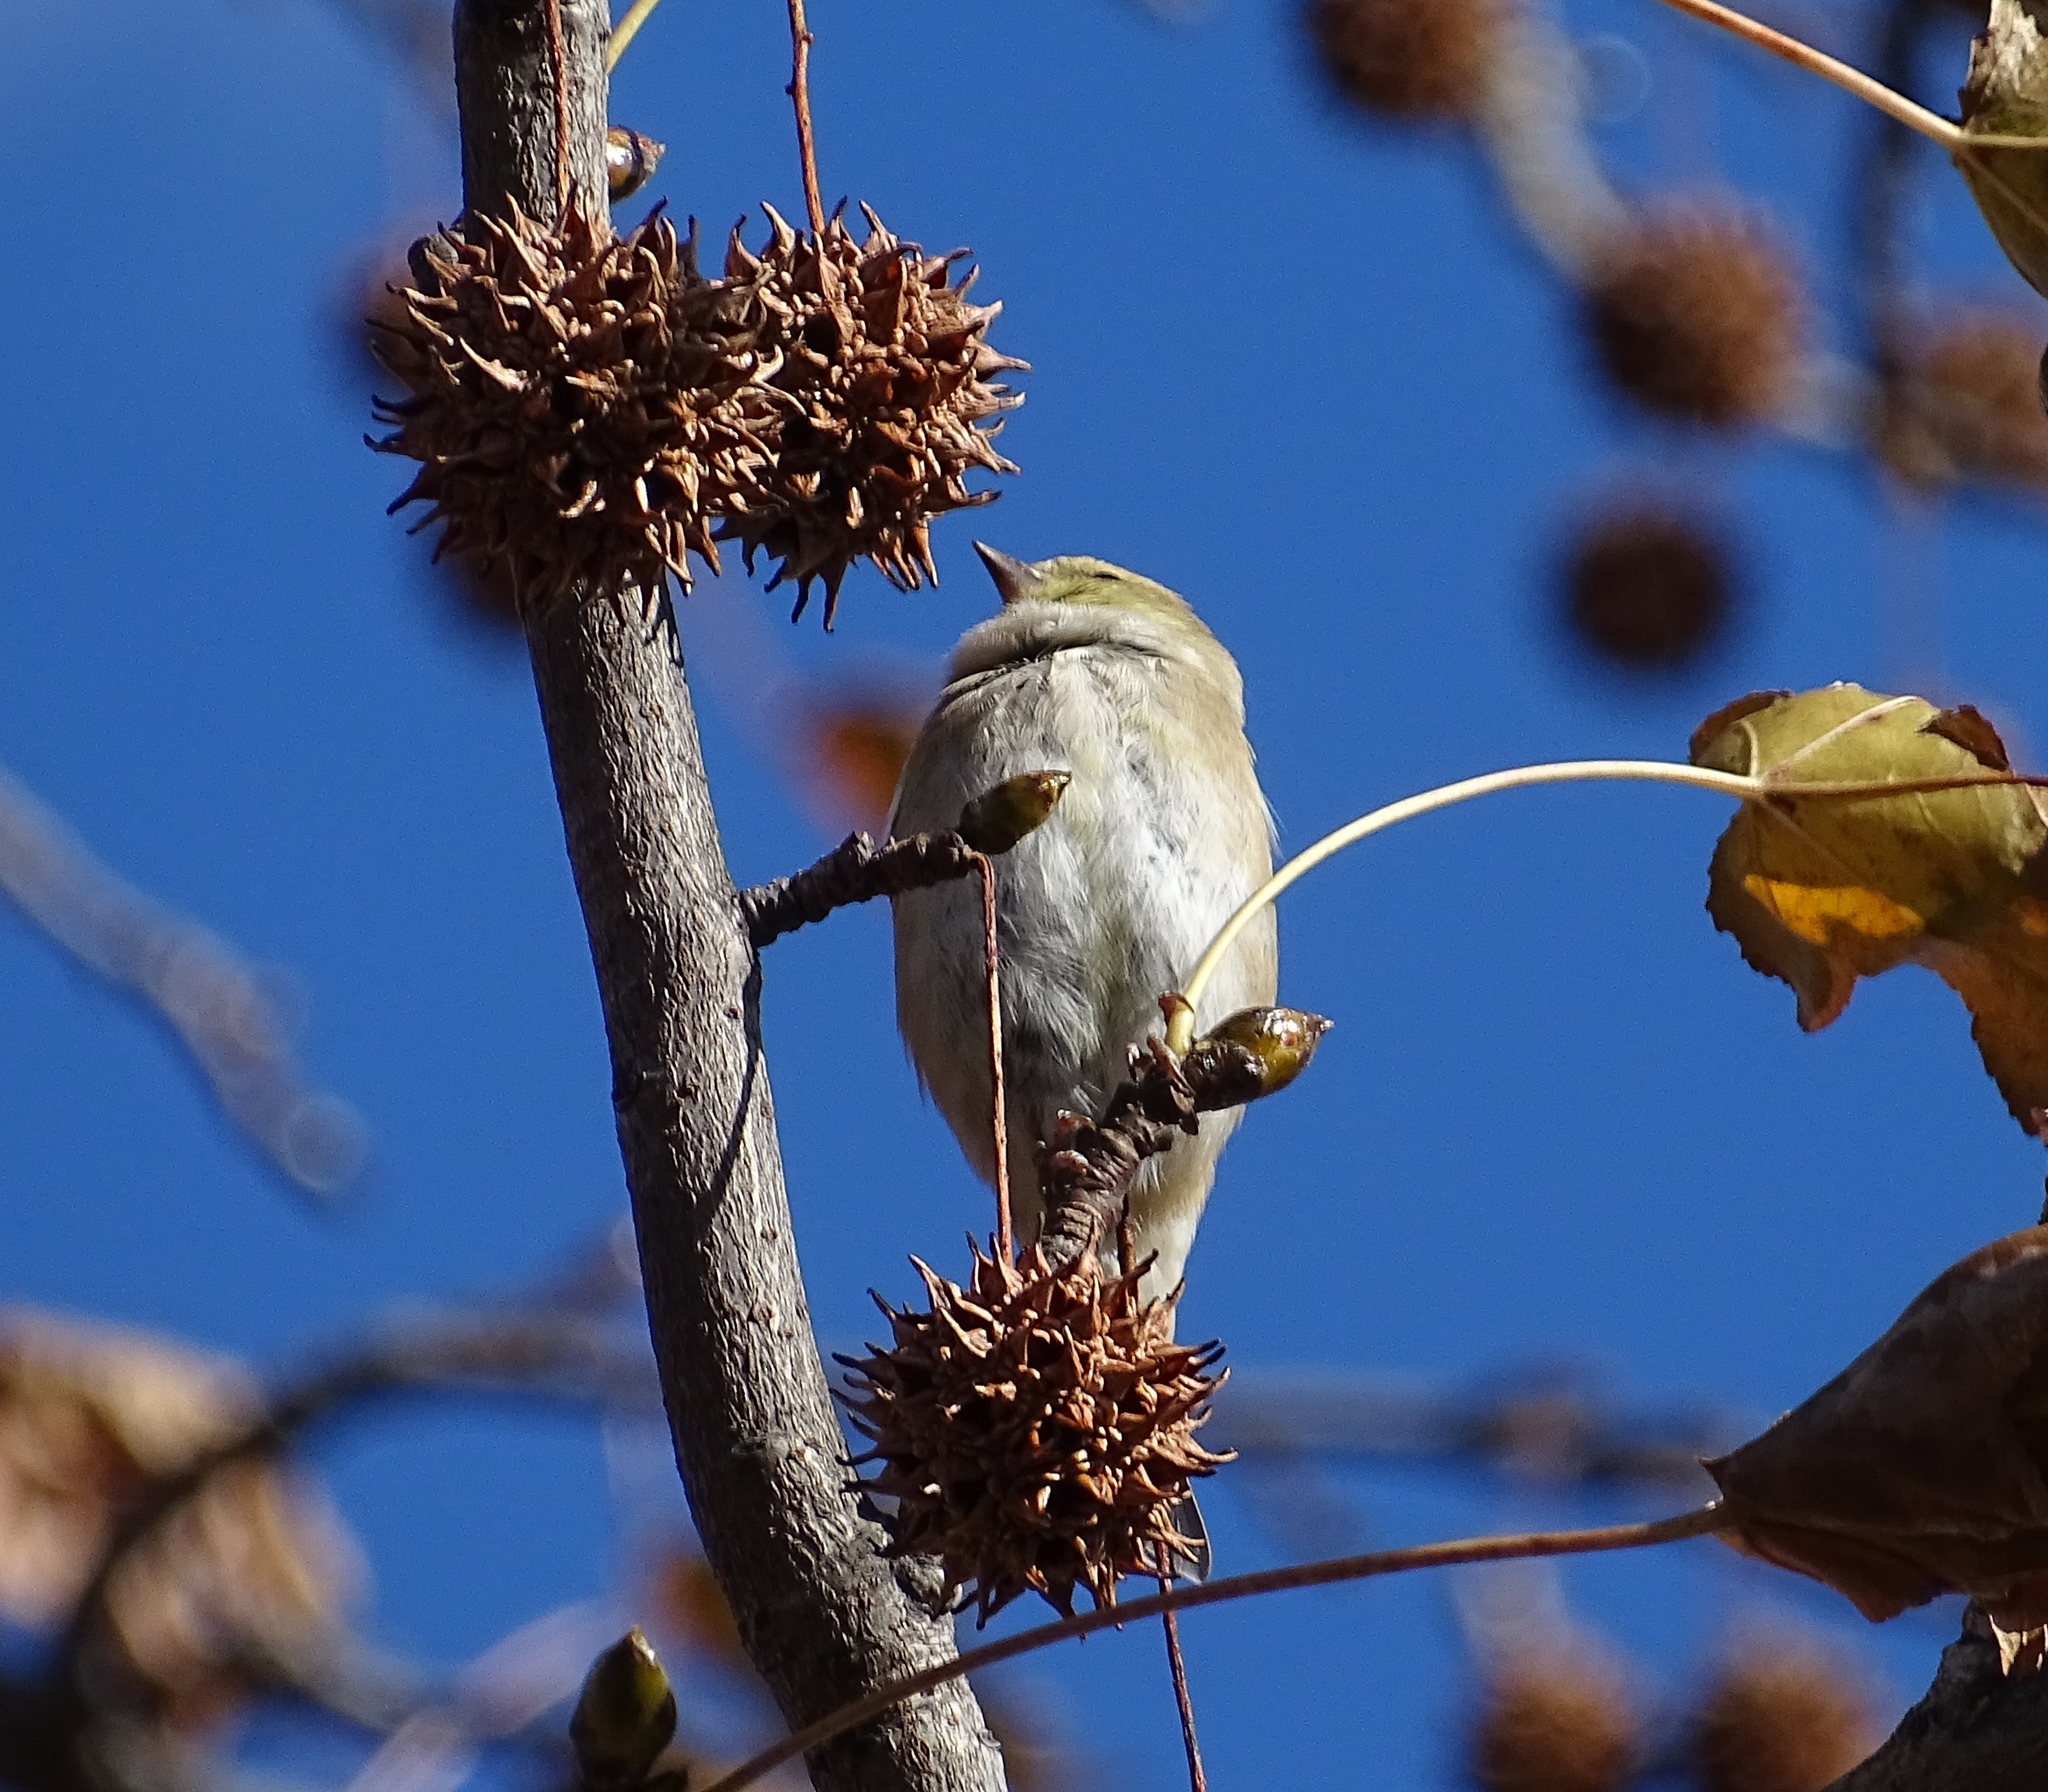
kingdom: Animalia
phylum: Chordata
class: Aves
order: Passeriformes
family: Fringillidae
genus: Spinus
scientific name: Spinus tristis
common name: American goldfinch
